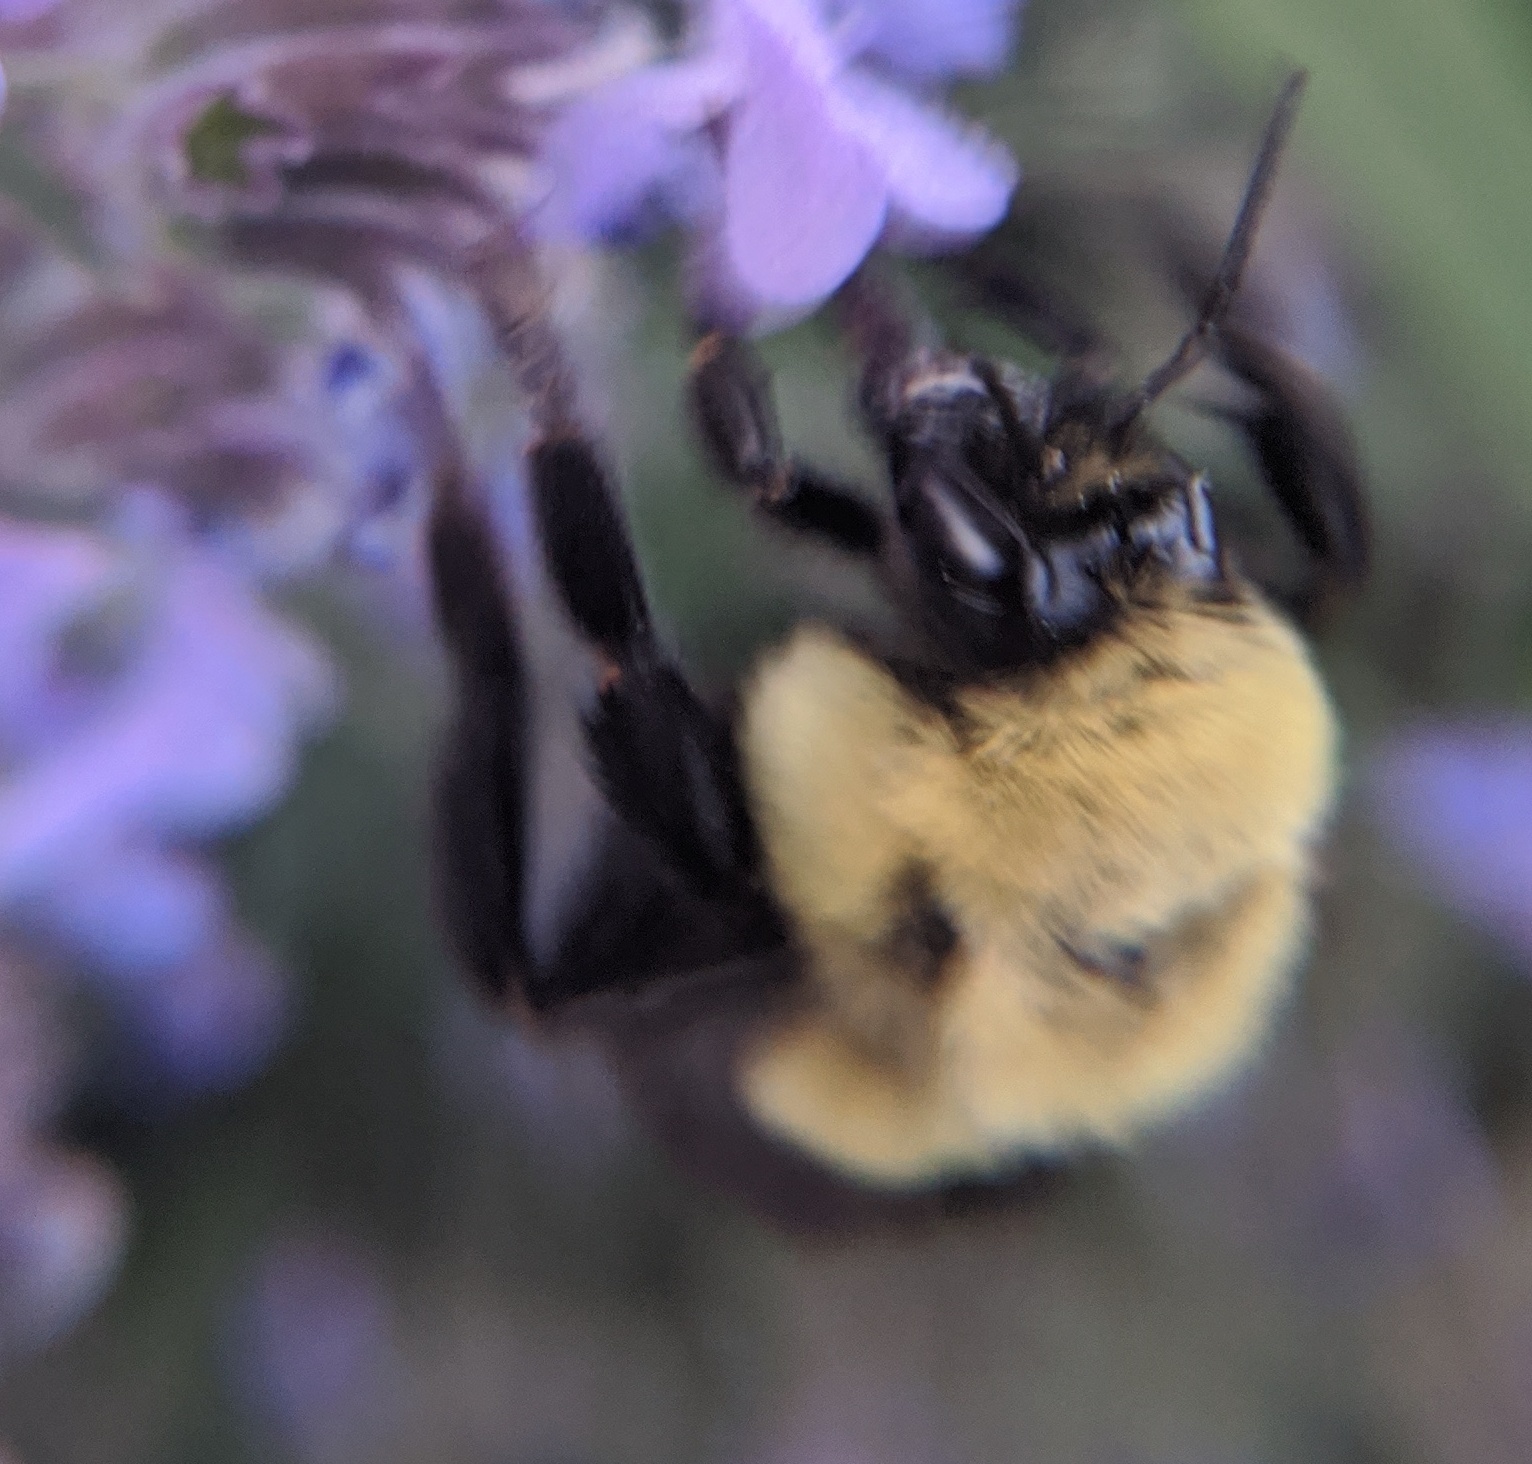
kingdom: Animalia
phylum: Arthropoda
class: Insecta
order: Hymenoptera
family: Apidae
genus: Bombus
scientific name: Bombus impatiens
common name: Common eastern bumble bee
